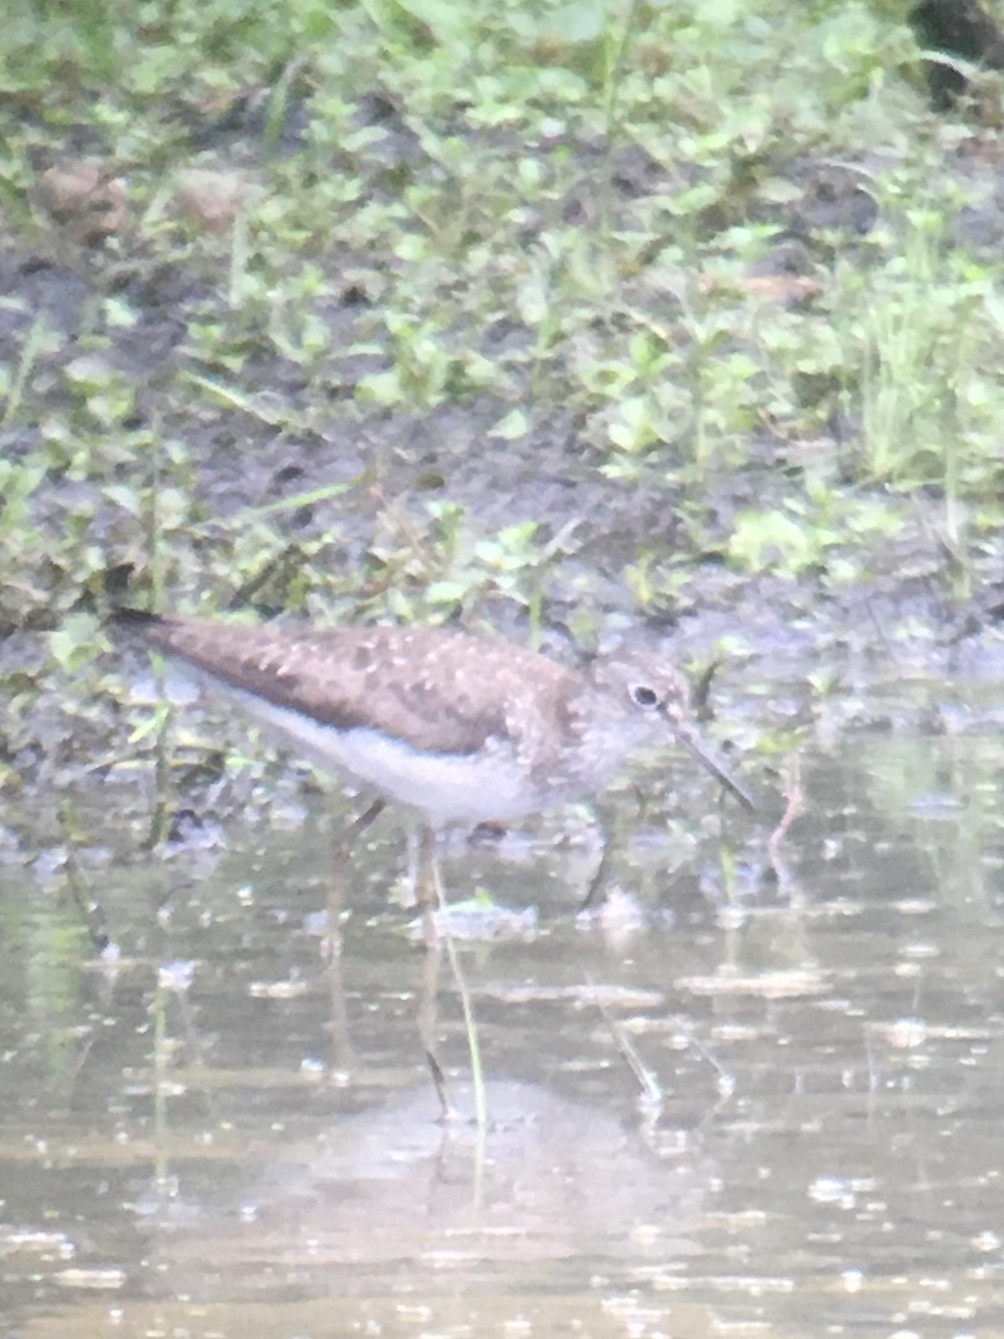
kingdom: Animalia
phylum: Chordata
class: Aves
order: Charadriiformes
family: Scolopacidae
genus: Tringa
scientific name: Tringa solitaria
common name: Solitary sandpiper
